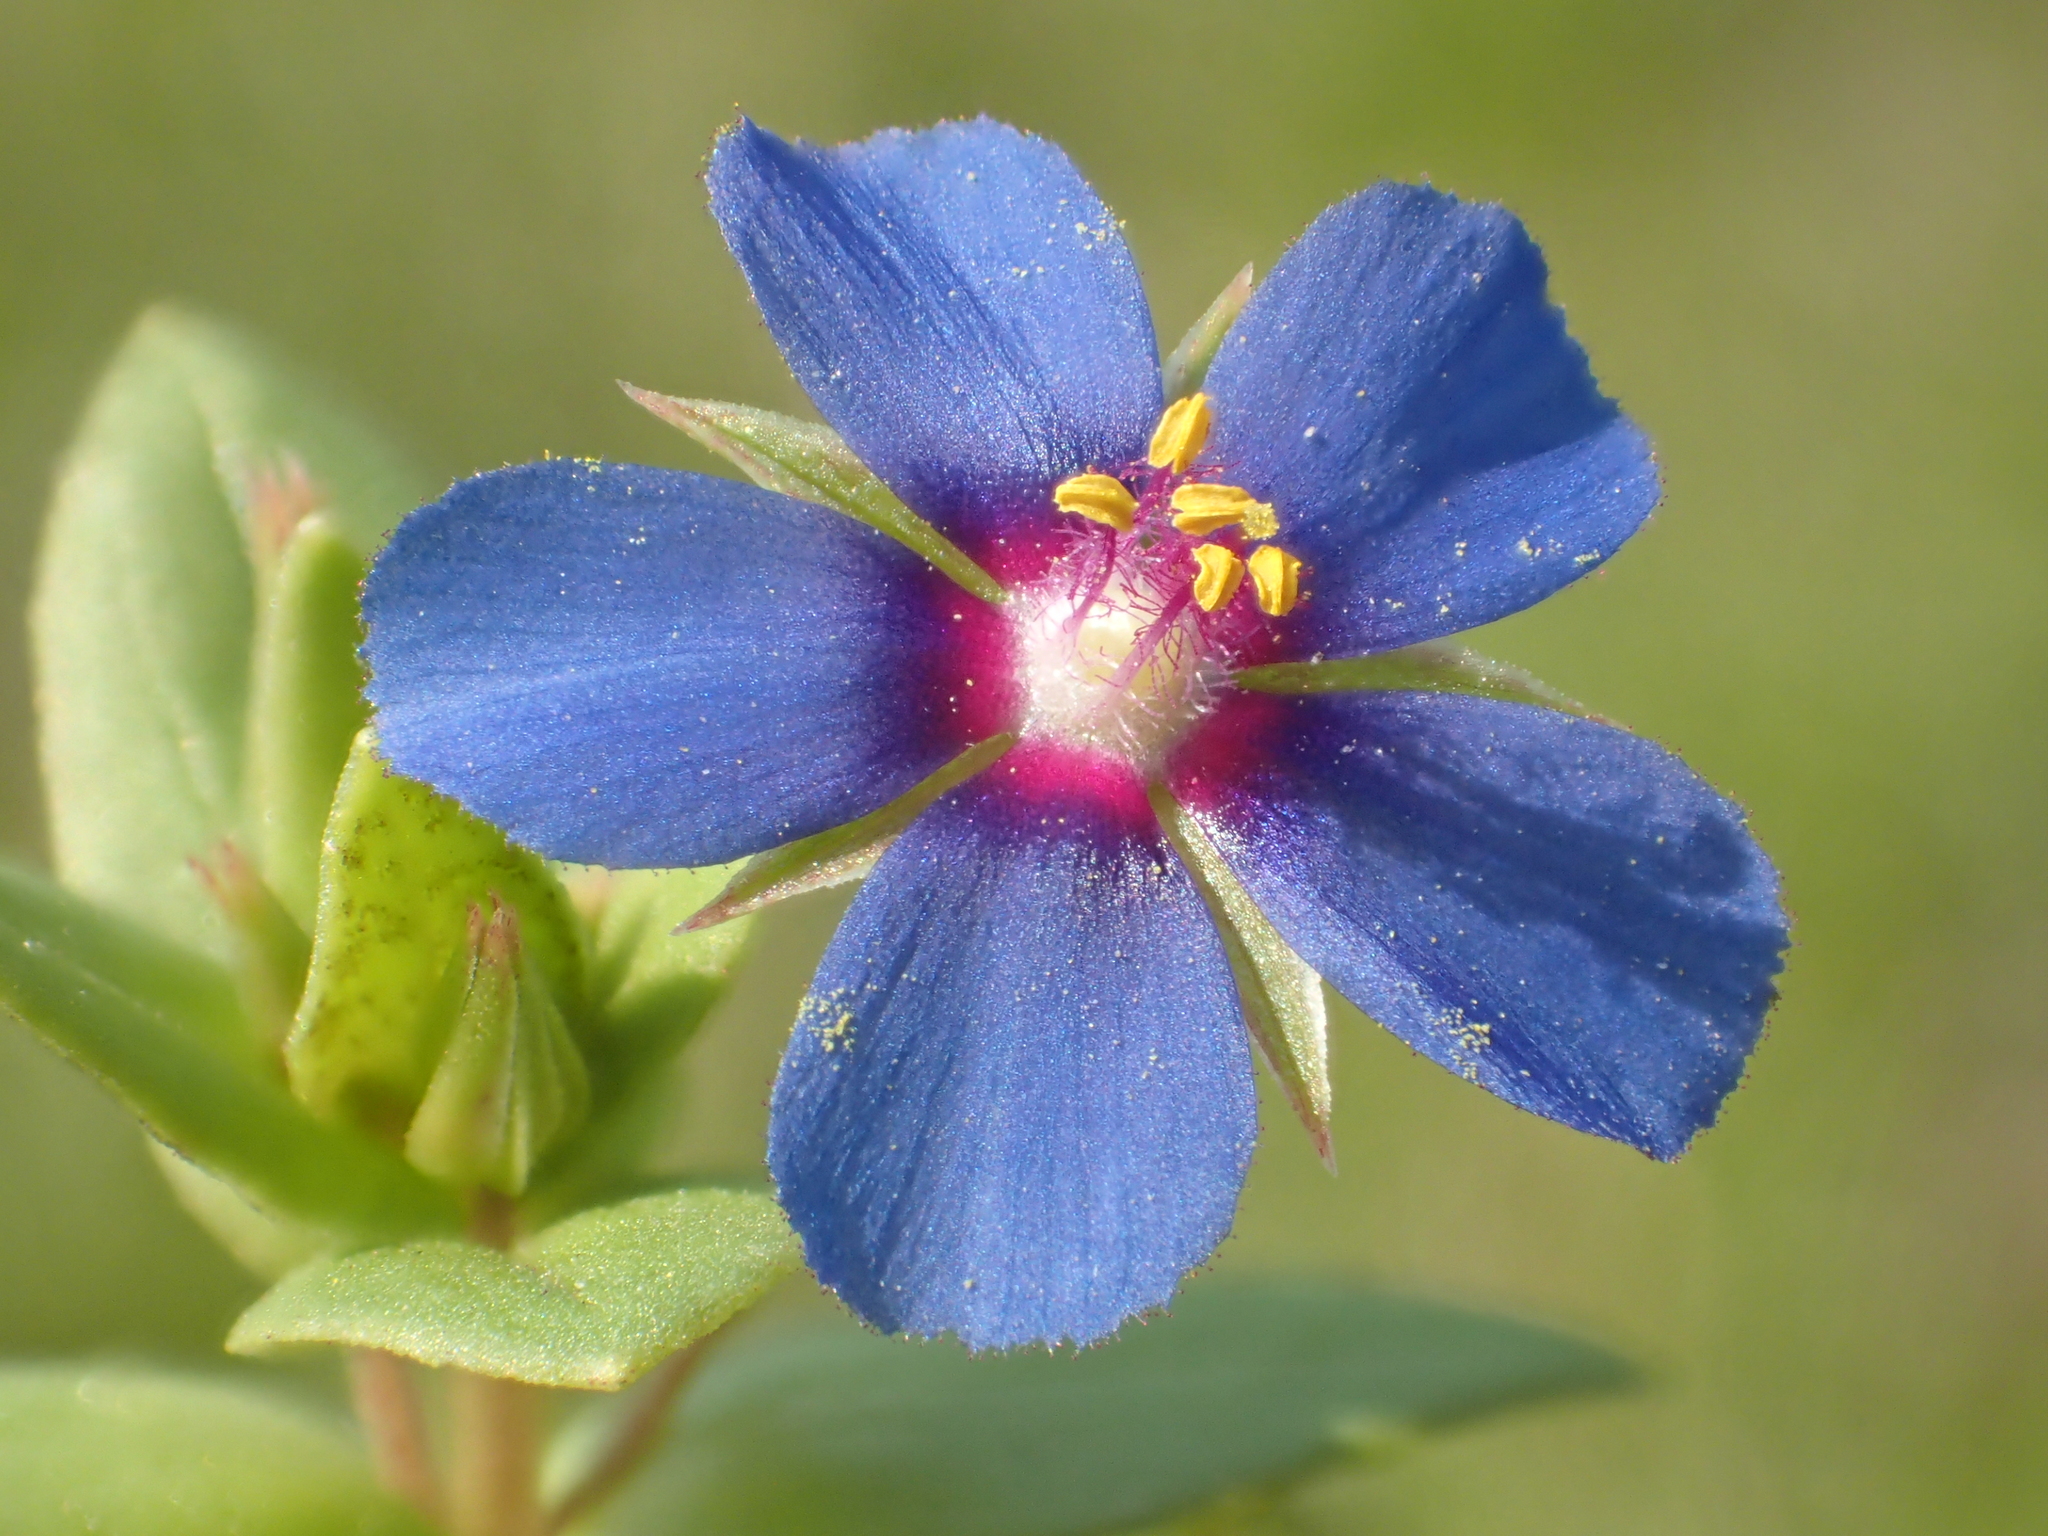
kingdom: Plantae
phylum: Tracheophyta
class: Magnoliopsida
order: Ericales
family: Primulaceae
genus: Lysimachia
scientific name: Lysimachia loeflingii
